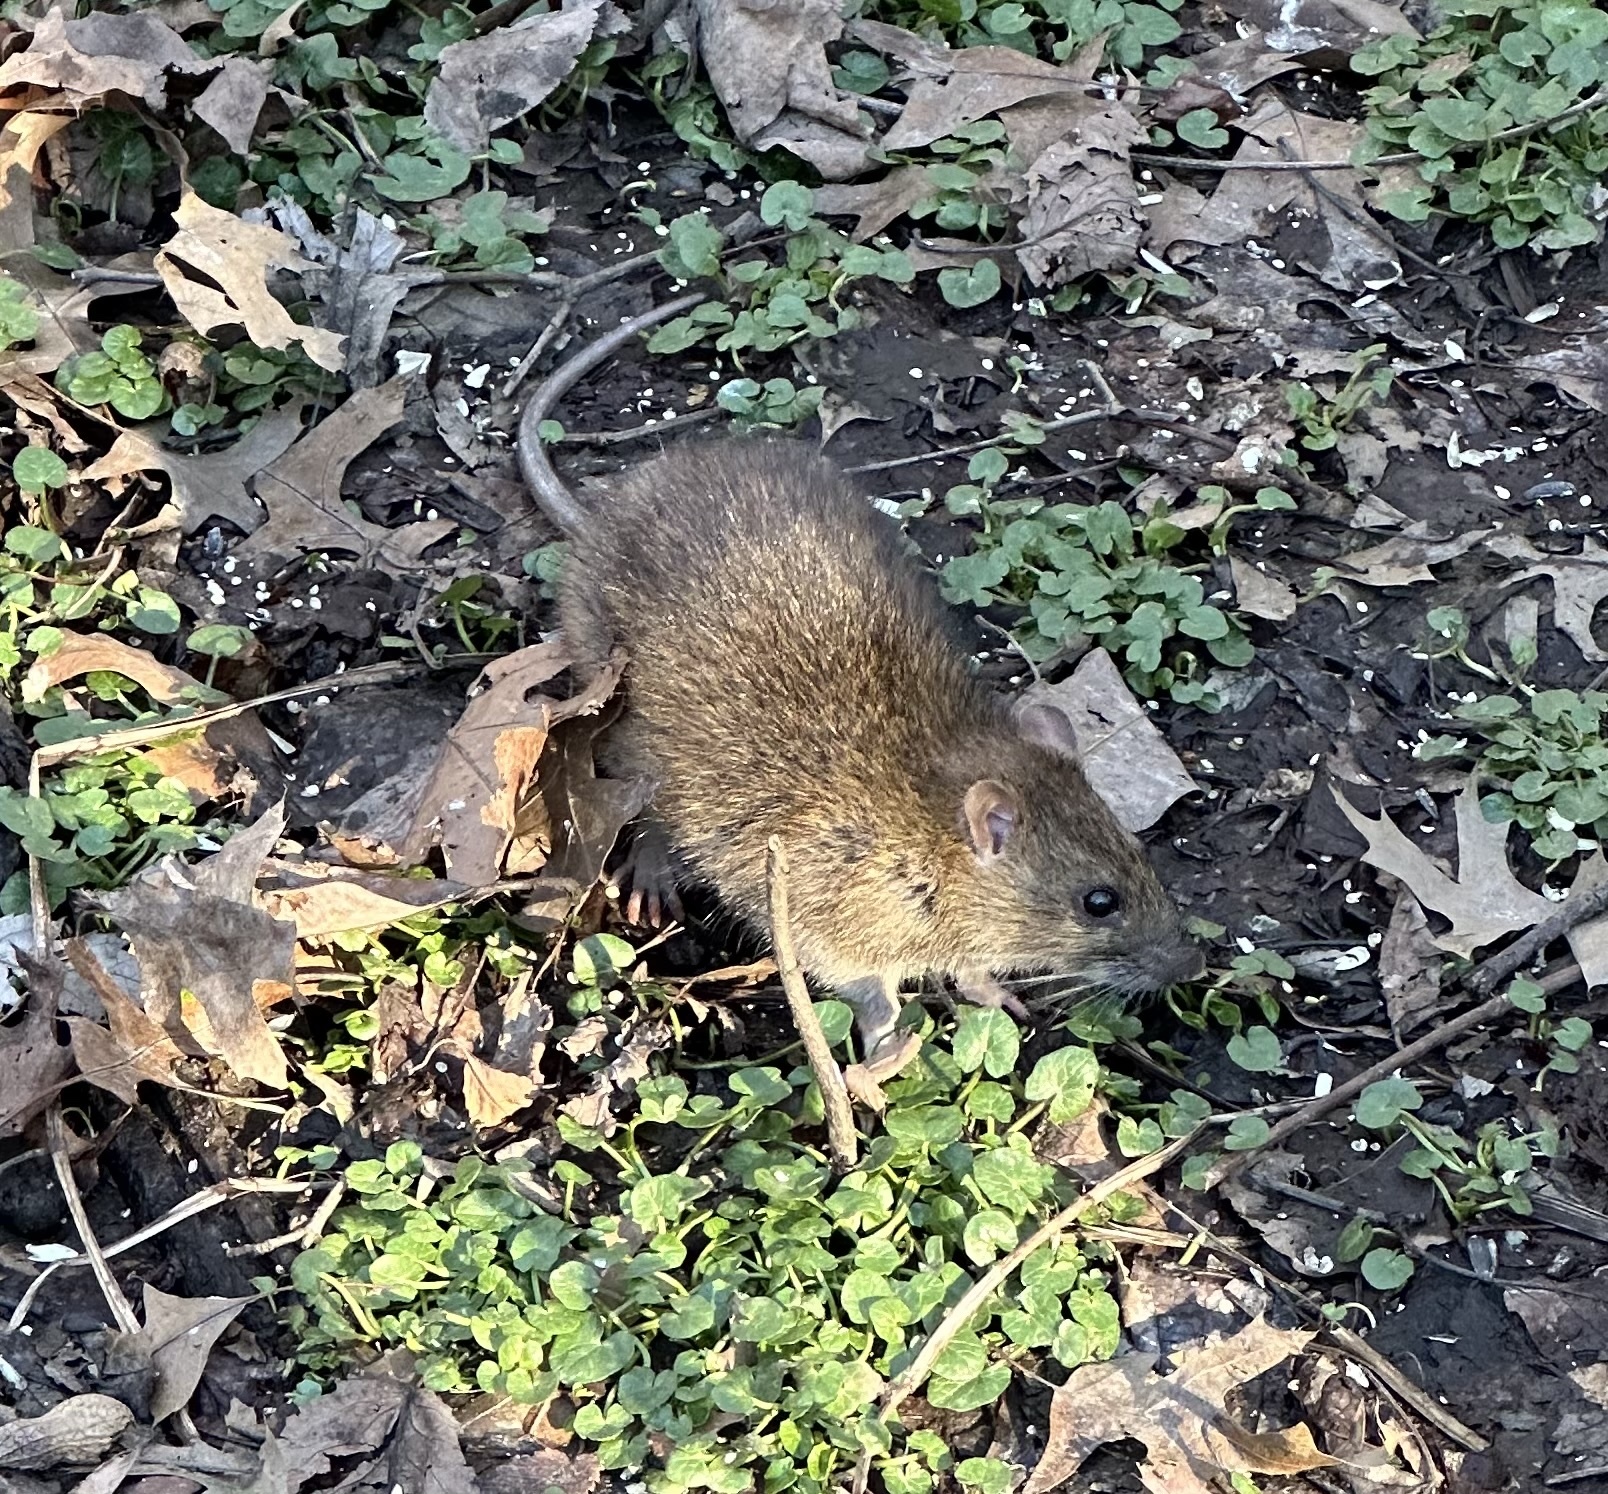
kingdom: Animalia
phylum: Chordata
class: Mammalia
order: Rodentia
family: Muridae
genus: Rattus
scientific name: Rattus norvegicus
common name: Brown rat
